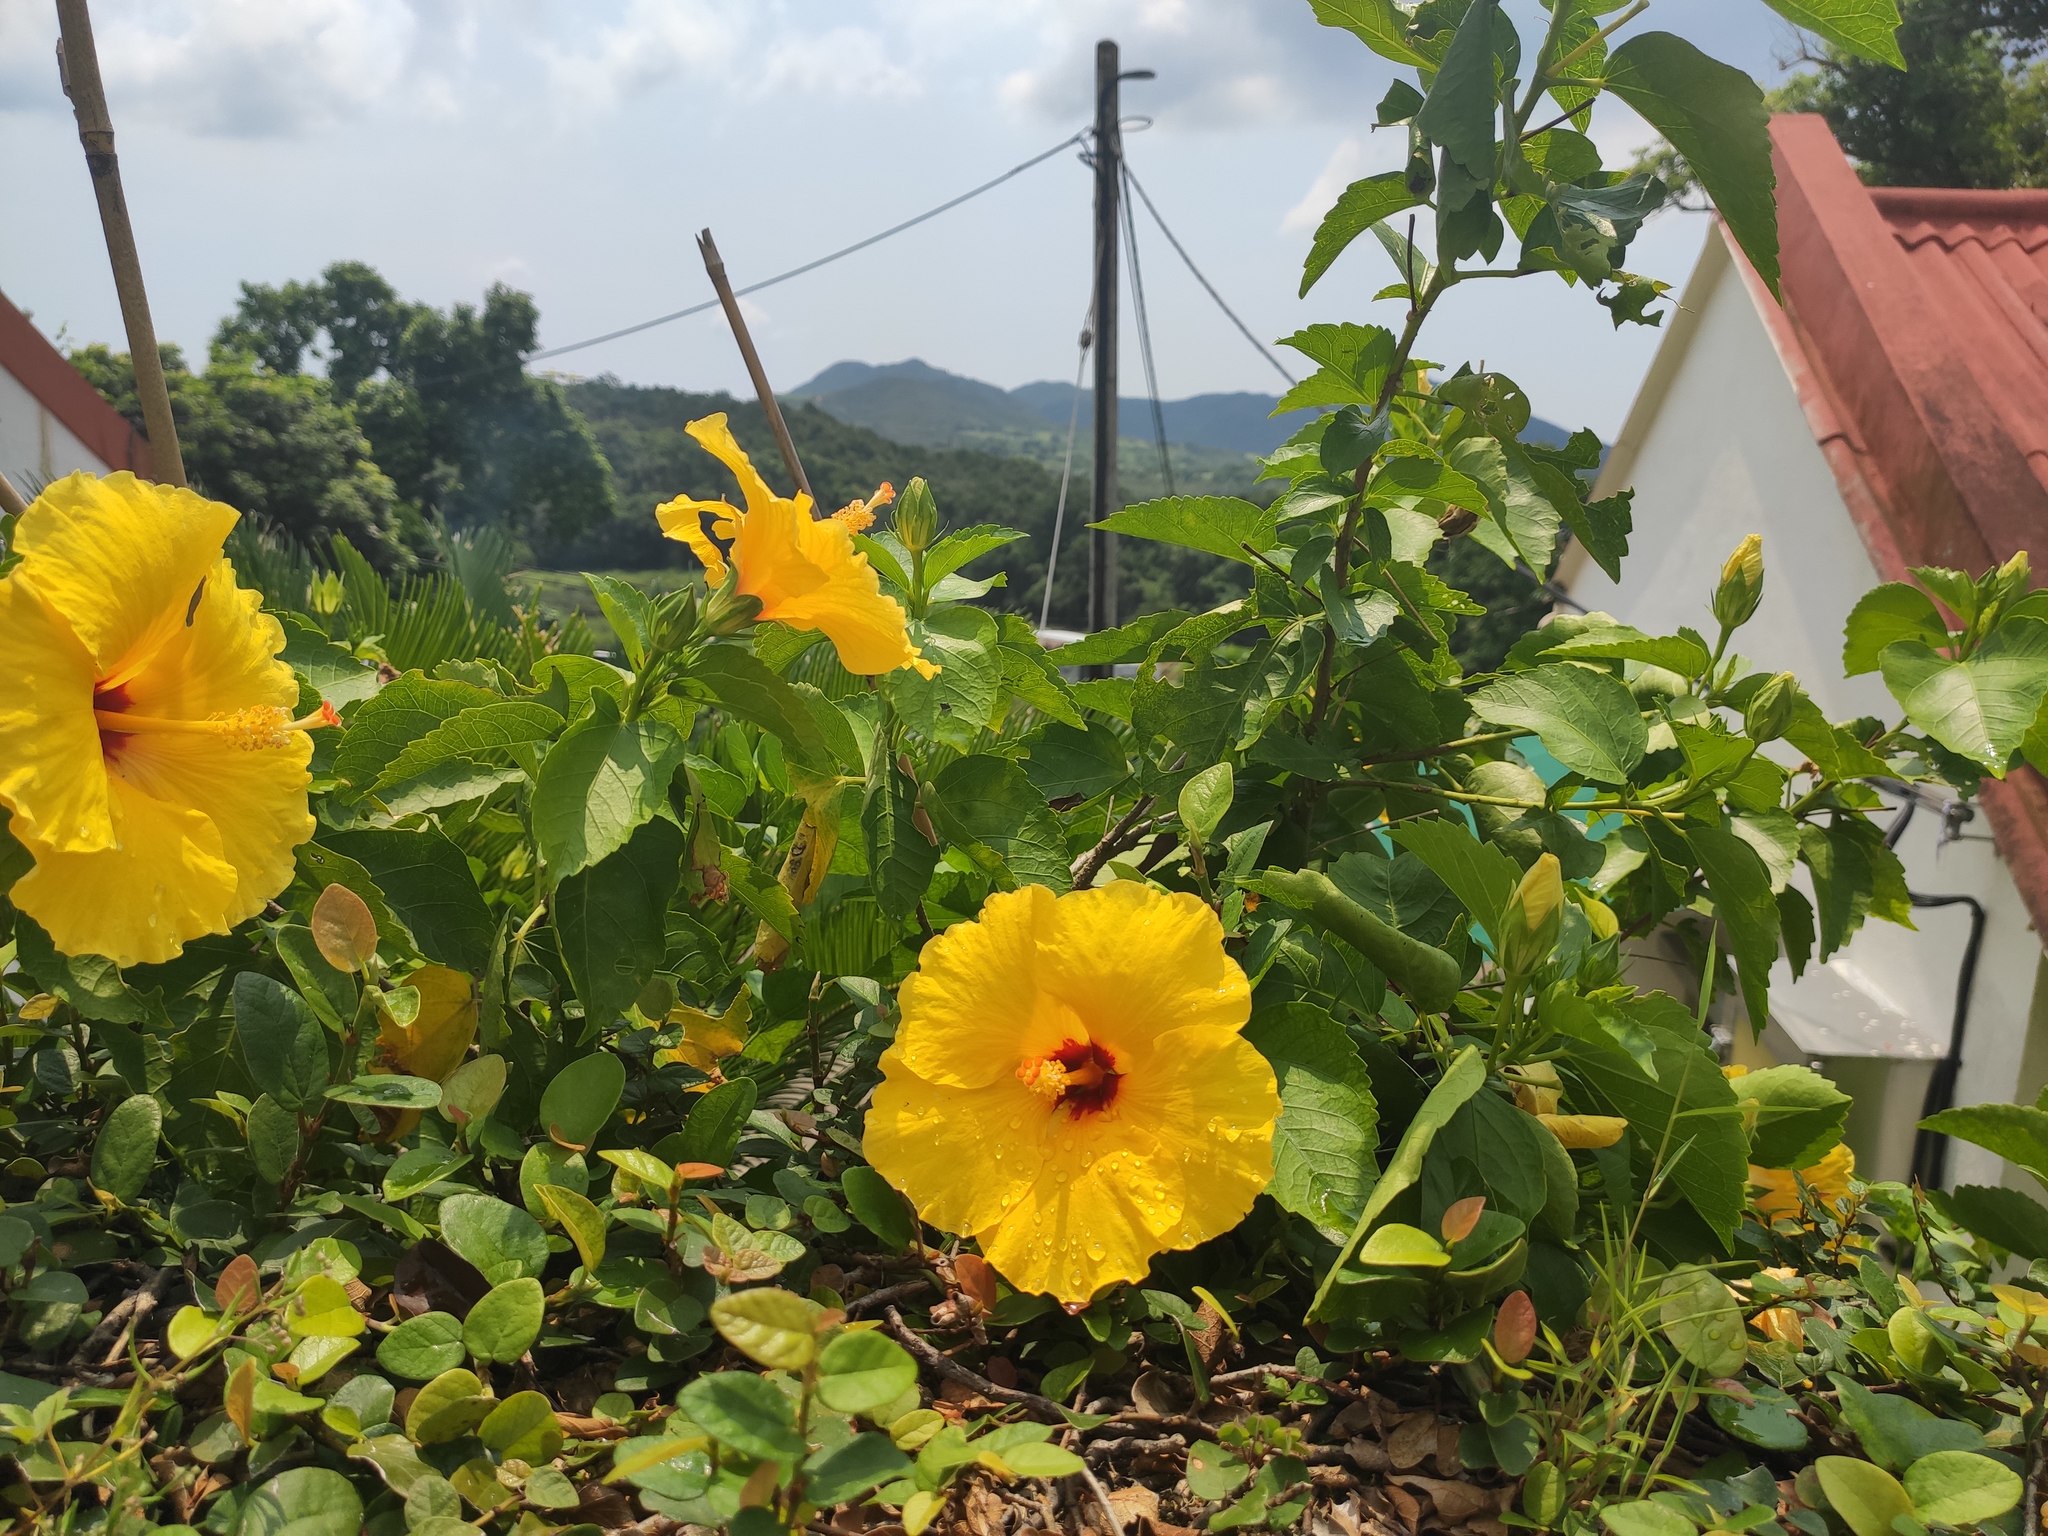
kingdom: Plantae
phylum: Tracheophyta
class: Magnoliopsida
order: Malvales
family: Malvaceae
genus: Hibiscus
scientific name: Hibiscus rosa-sinensis
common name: Hibiscus
